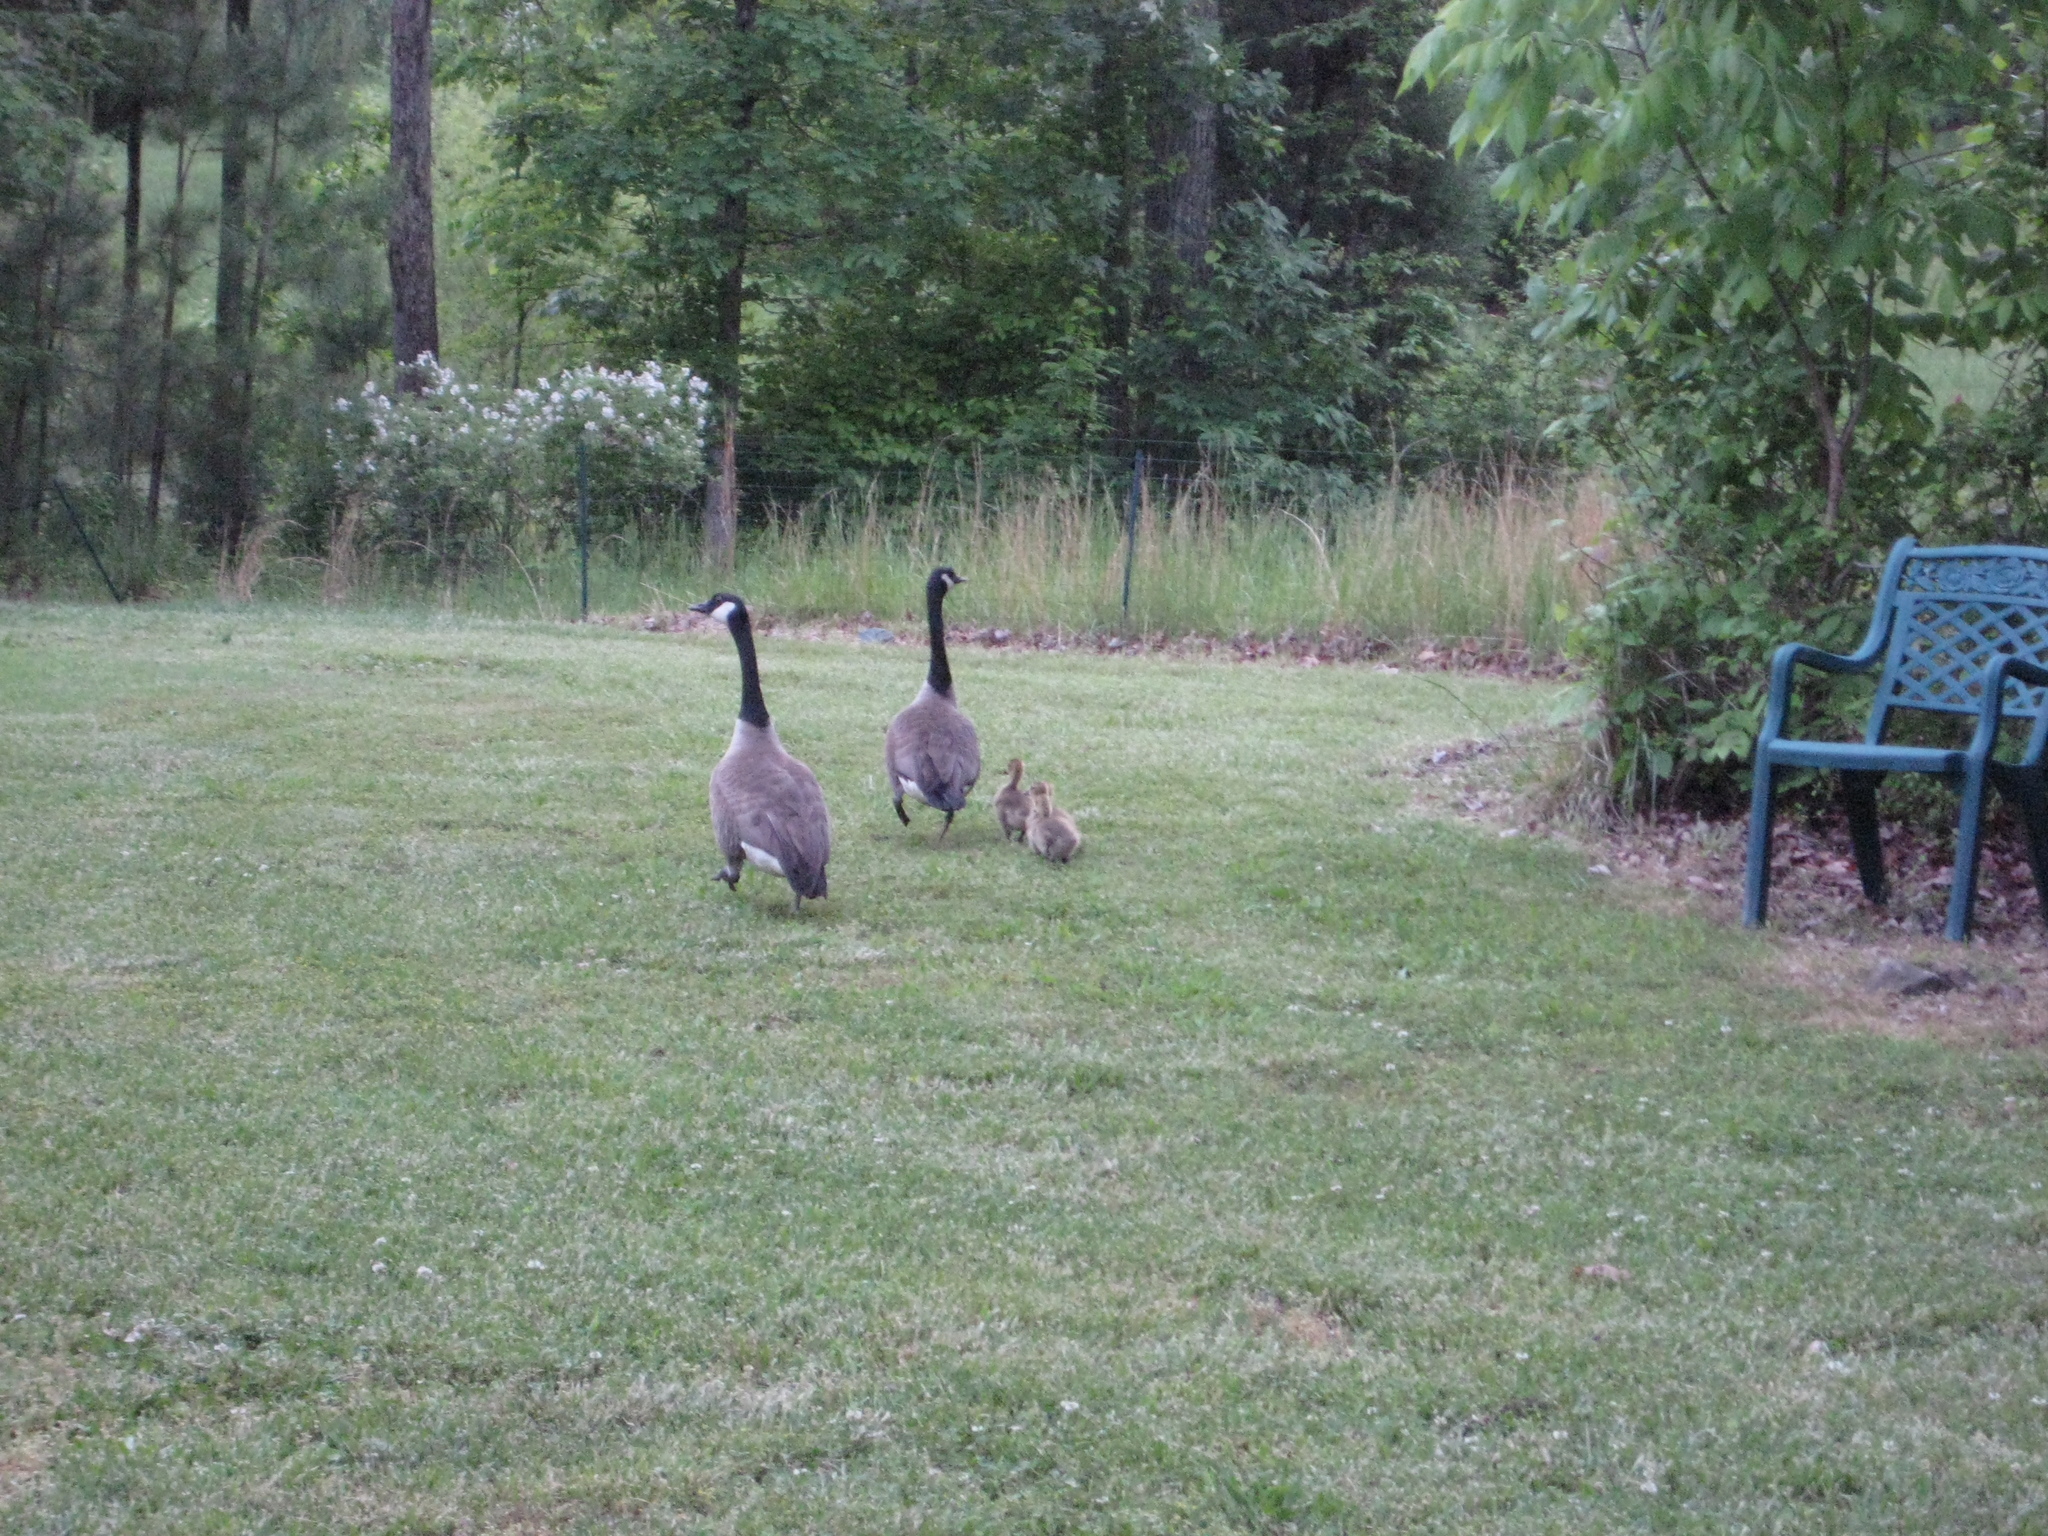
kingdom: Animalia
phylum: Chordata
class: Aves
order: Anseriformes
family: Anatidae
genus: Branta
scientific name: Branta canadensis
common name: Canada goose
